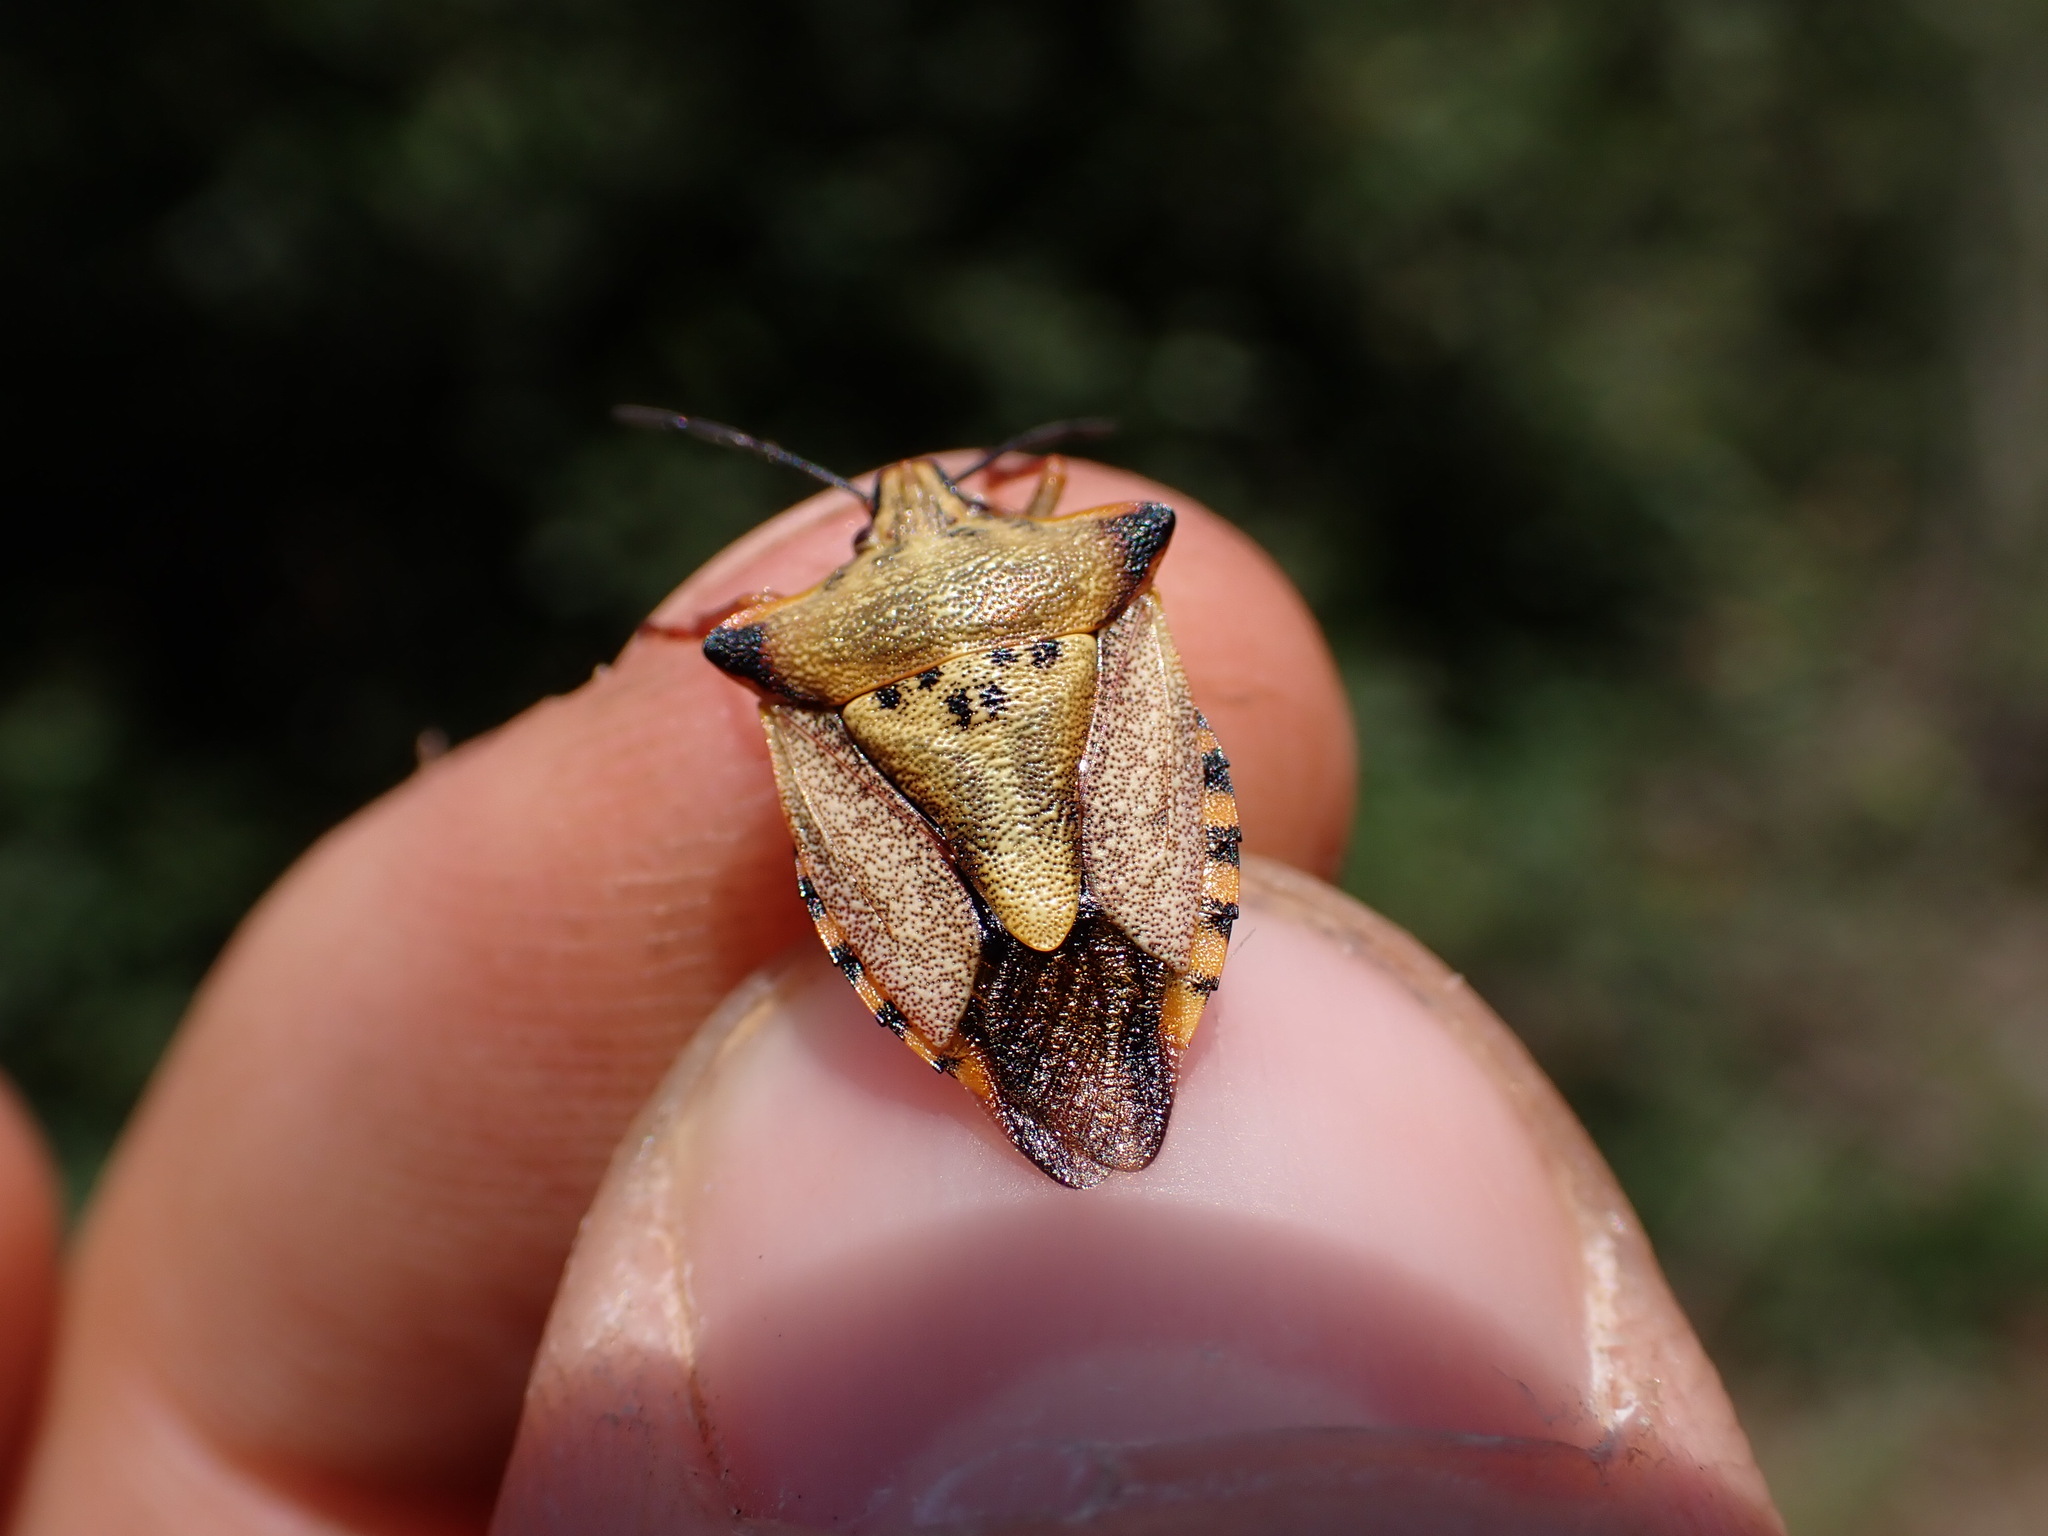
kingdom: Animalia
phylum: Arthropoda
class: Insecta
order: Hemiptera
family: Pentatomidae
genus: Carpocoris
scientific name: Carpocoris mediterraneus
